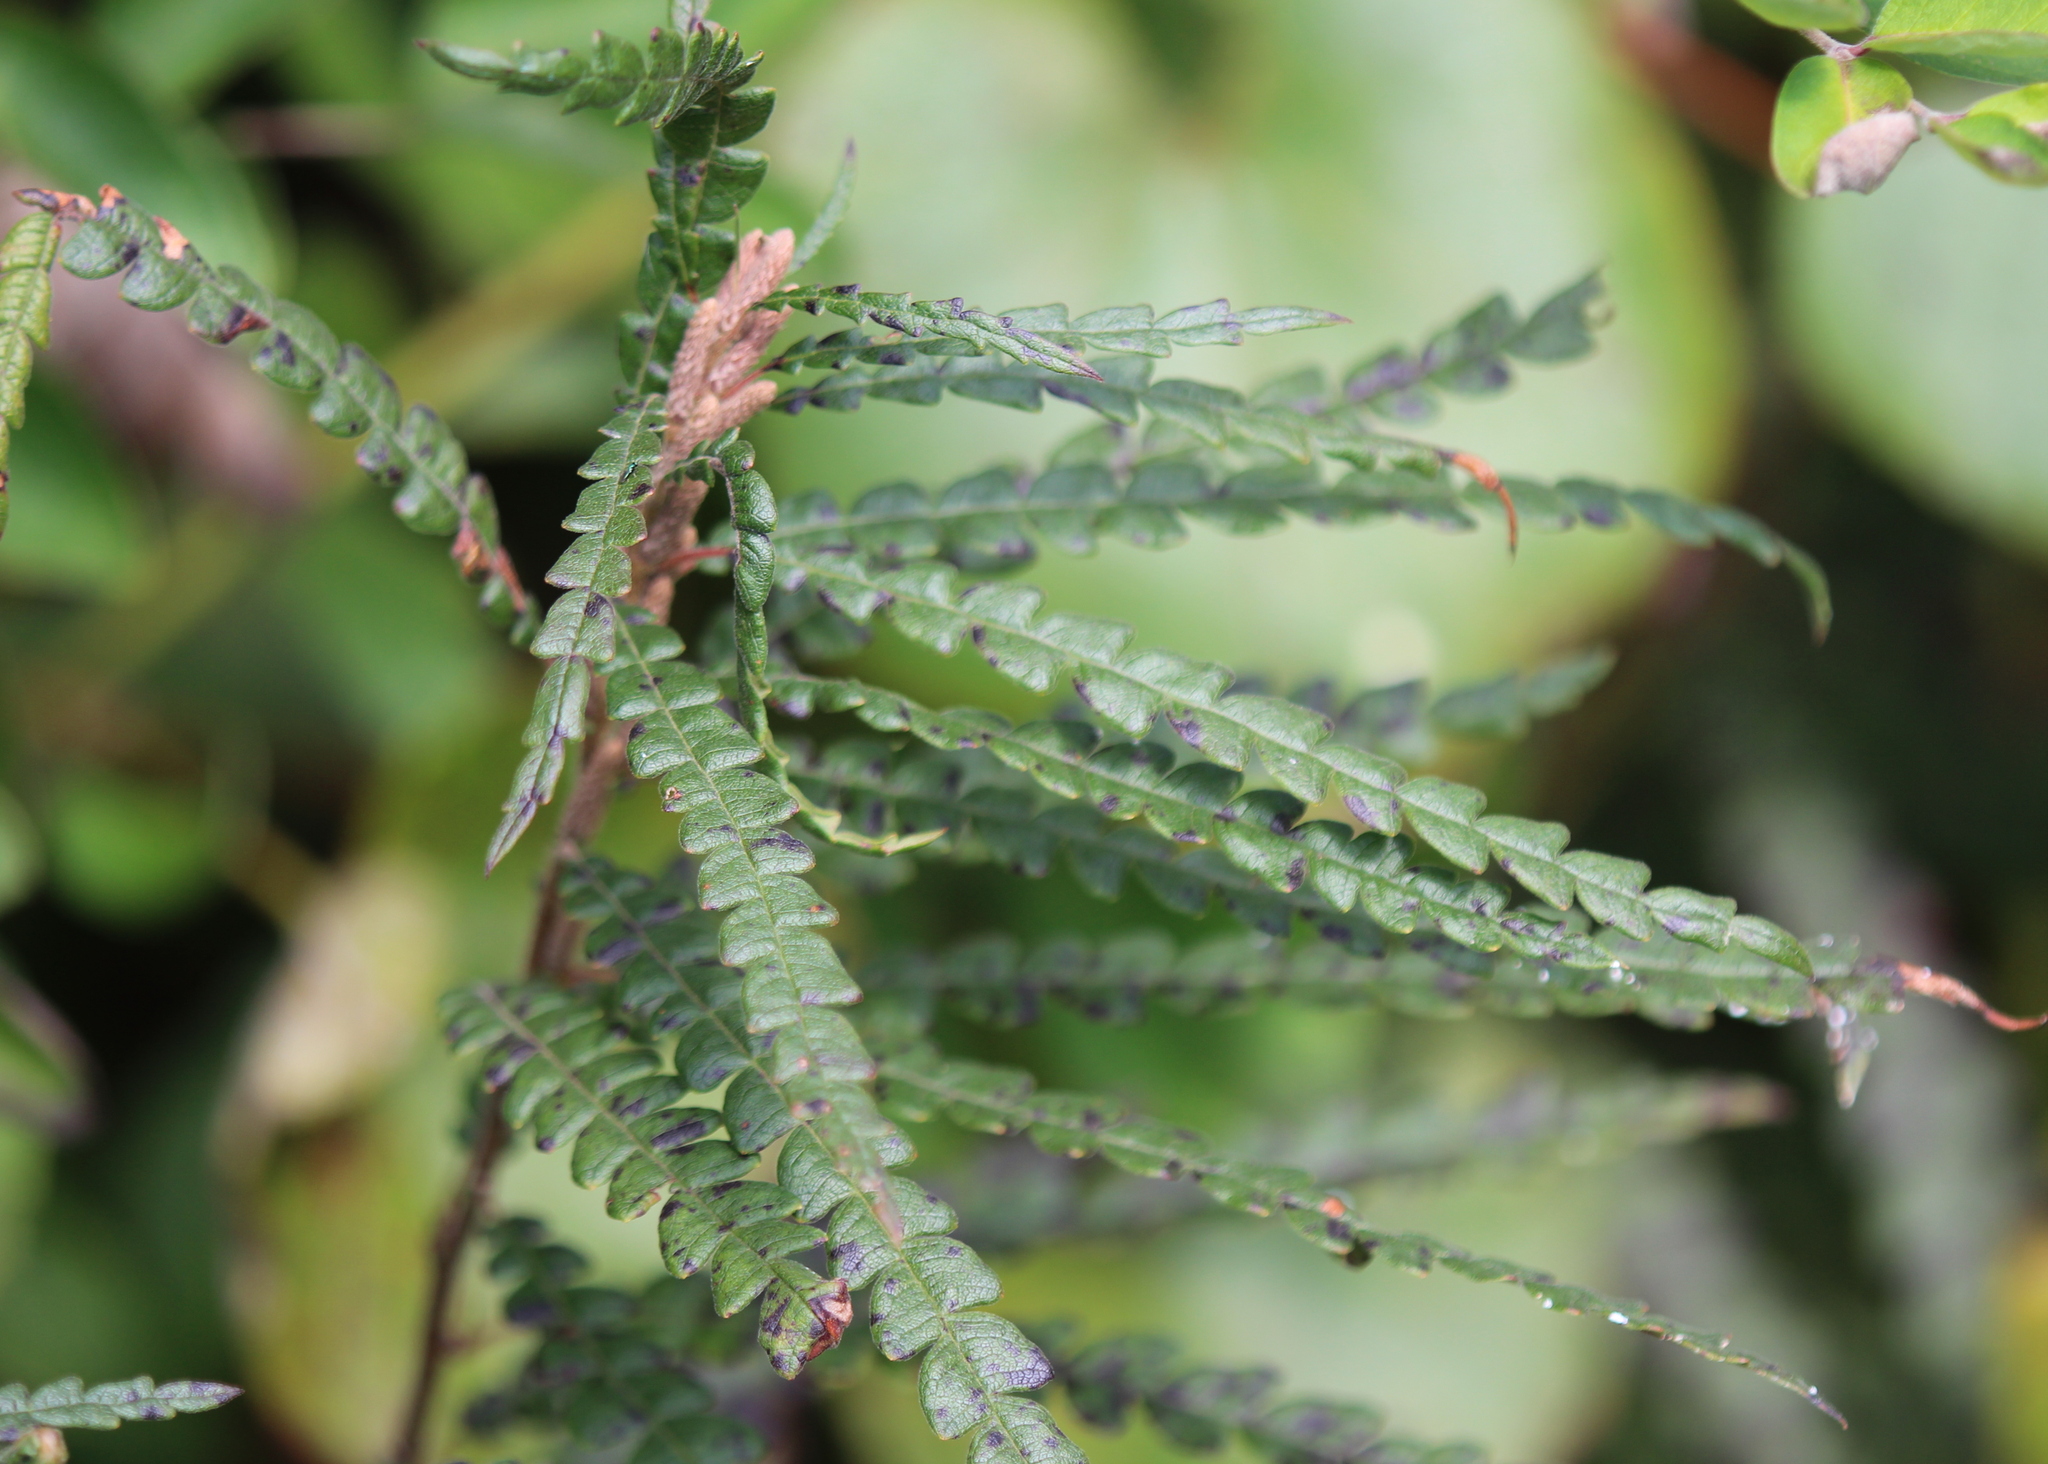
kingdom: Plantae
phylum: Tracheophyta
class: Magnoliopsida
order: Fagales
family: Myricaceae
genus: Comptonia
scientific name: Comptonia peregrina
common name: Sweet-fern
